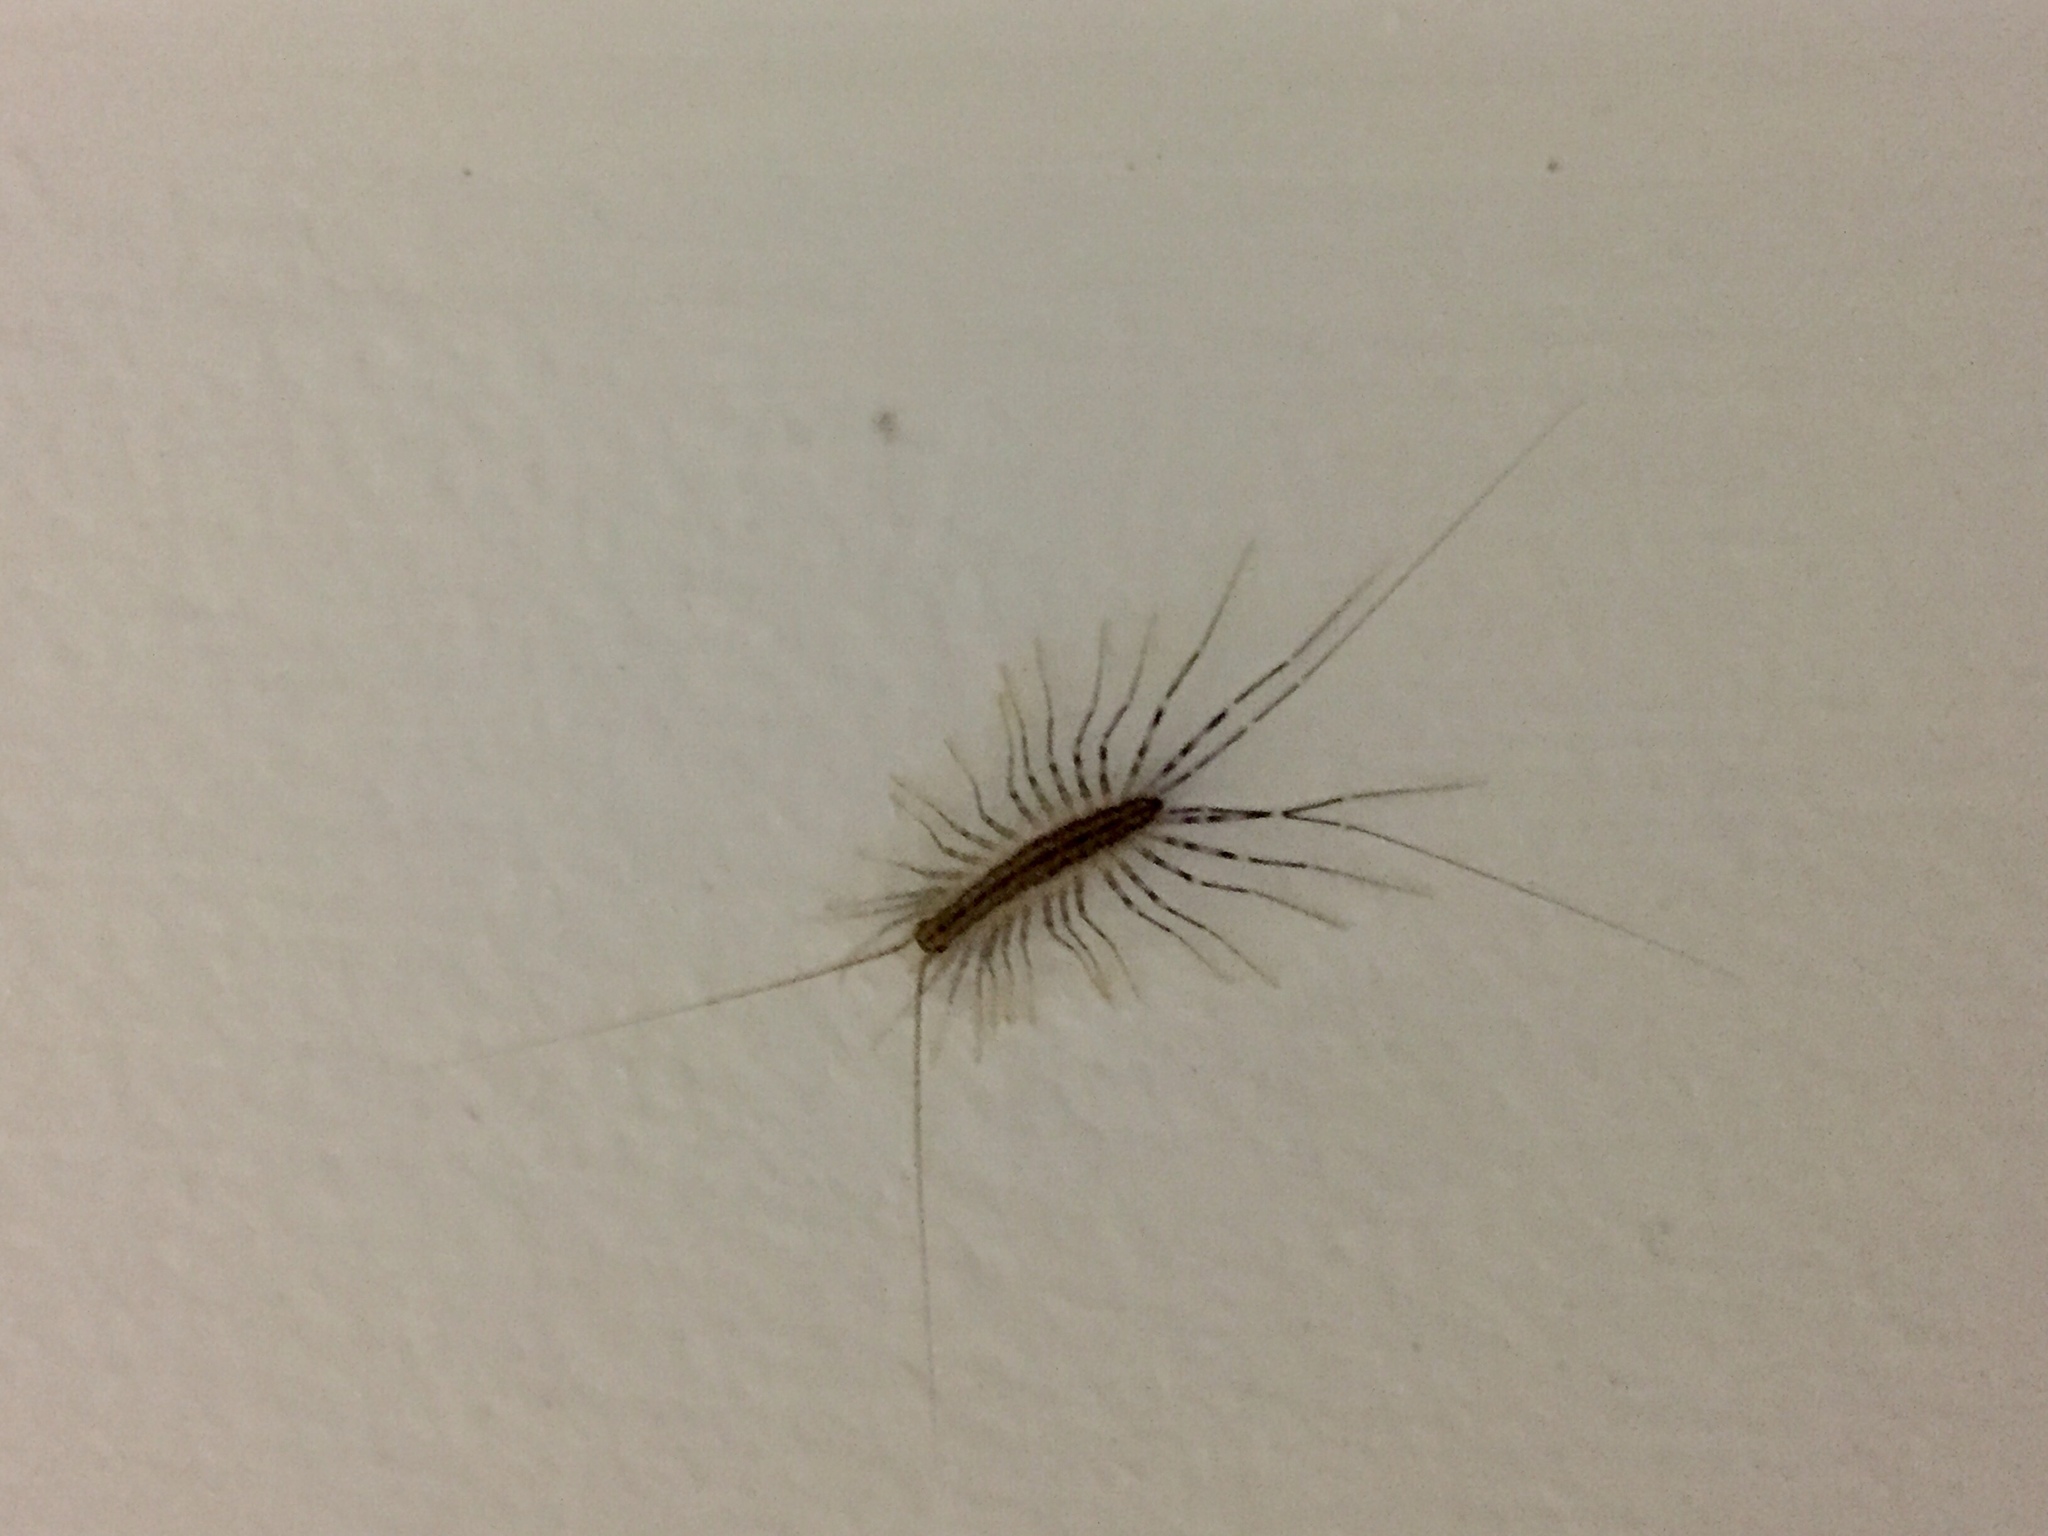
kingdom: Animalia
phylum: Arthropoda
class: Chilopoda
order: Scutigeromorpha
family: Scutigeridae
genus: Scutigera
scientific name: Scutigera coleoptrata
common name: House centipede
